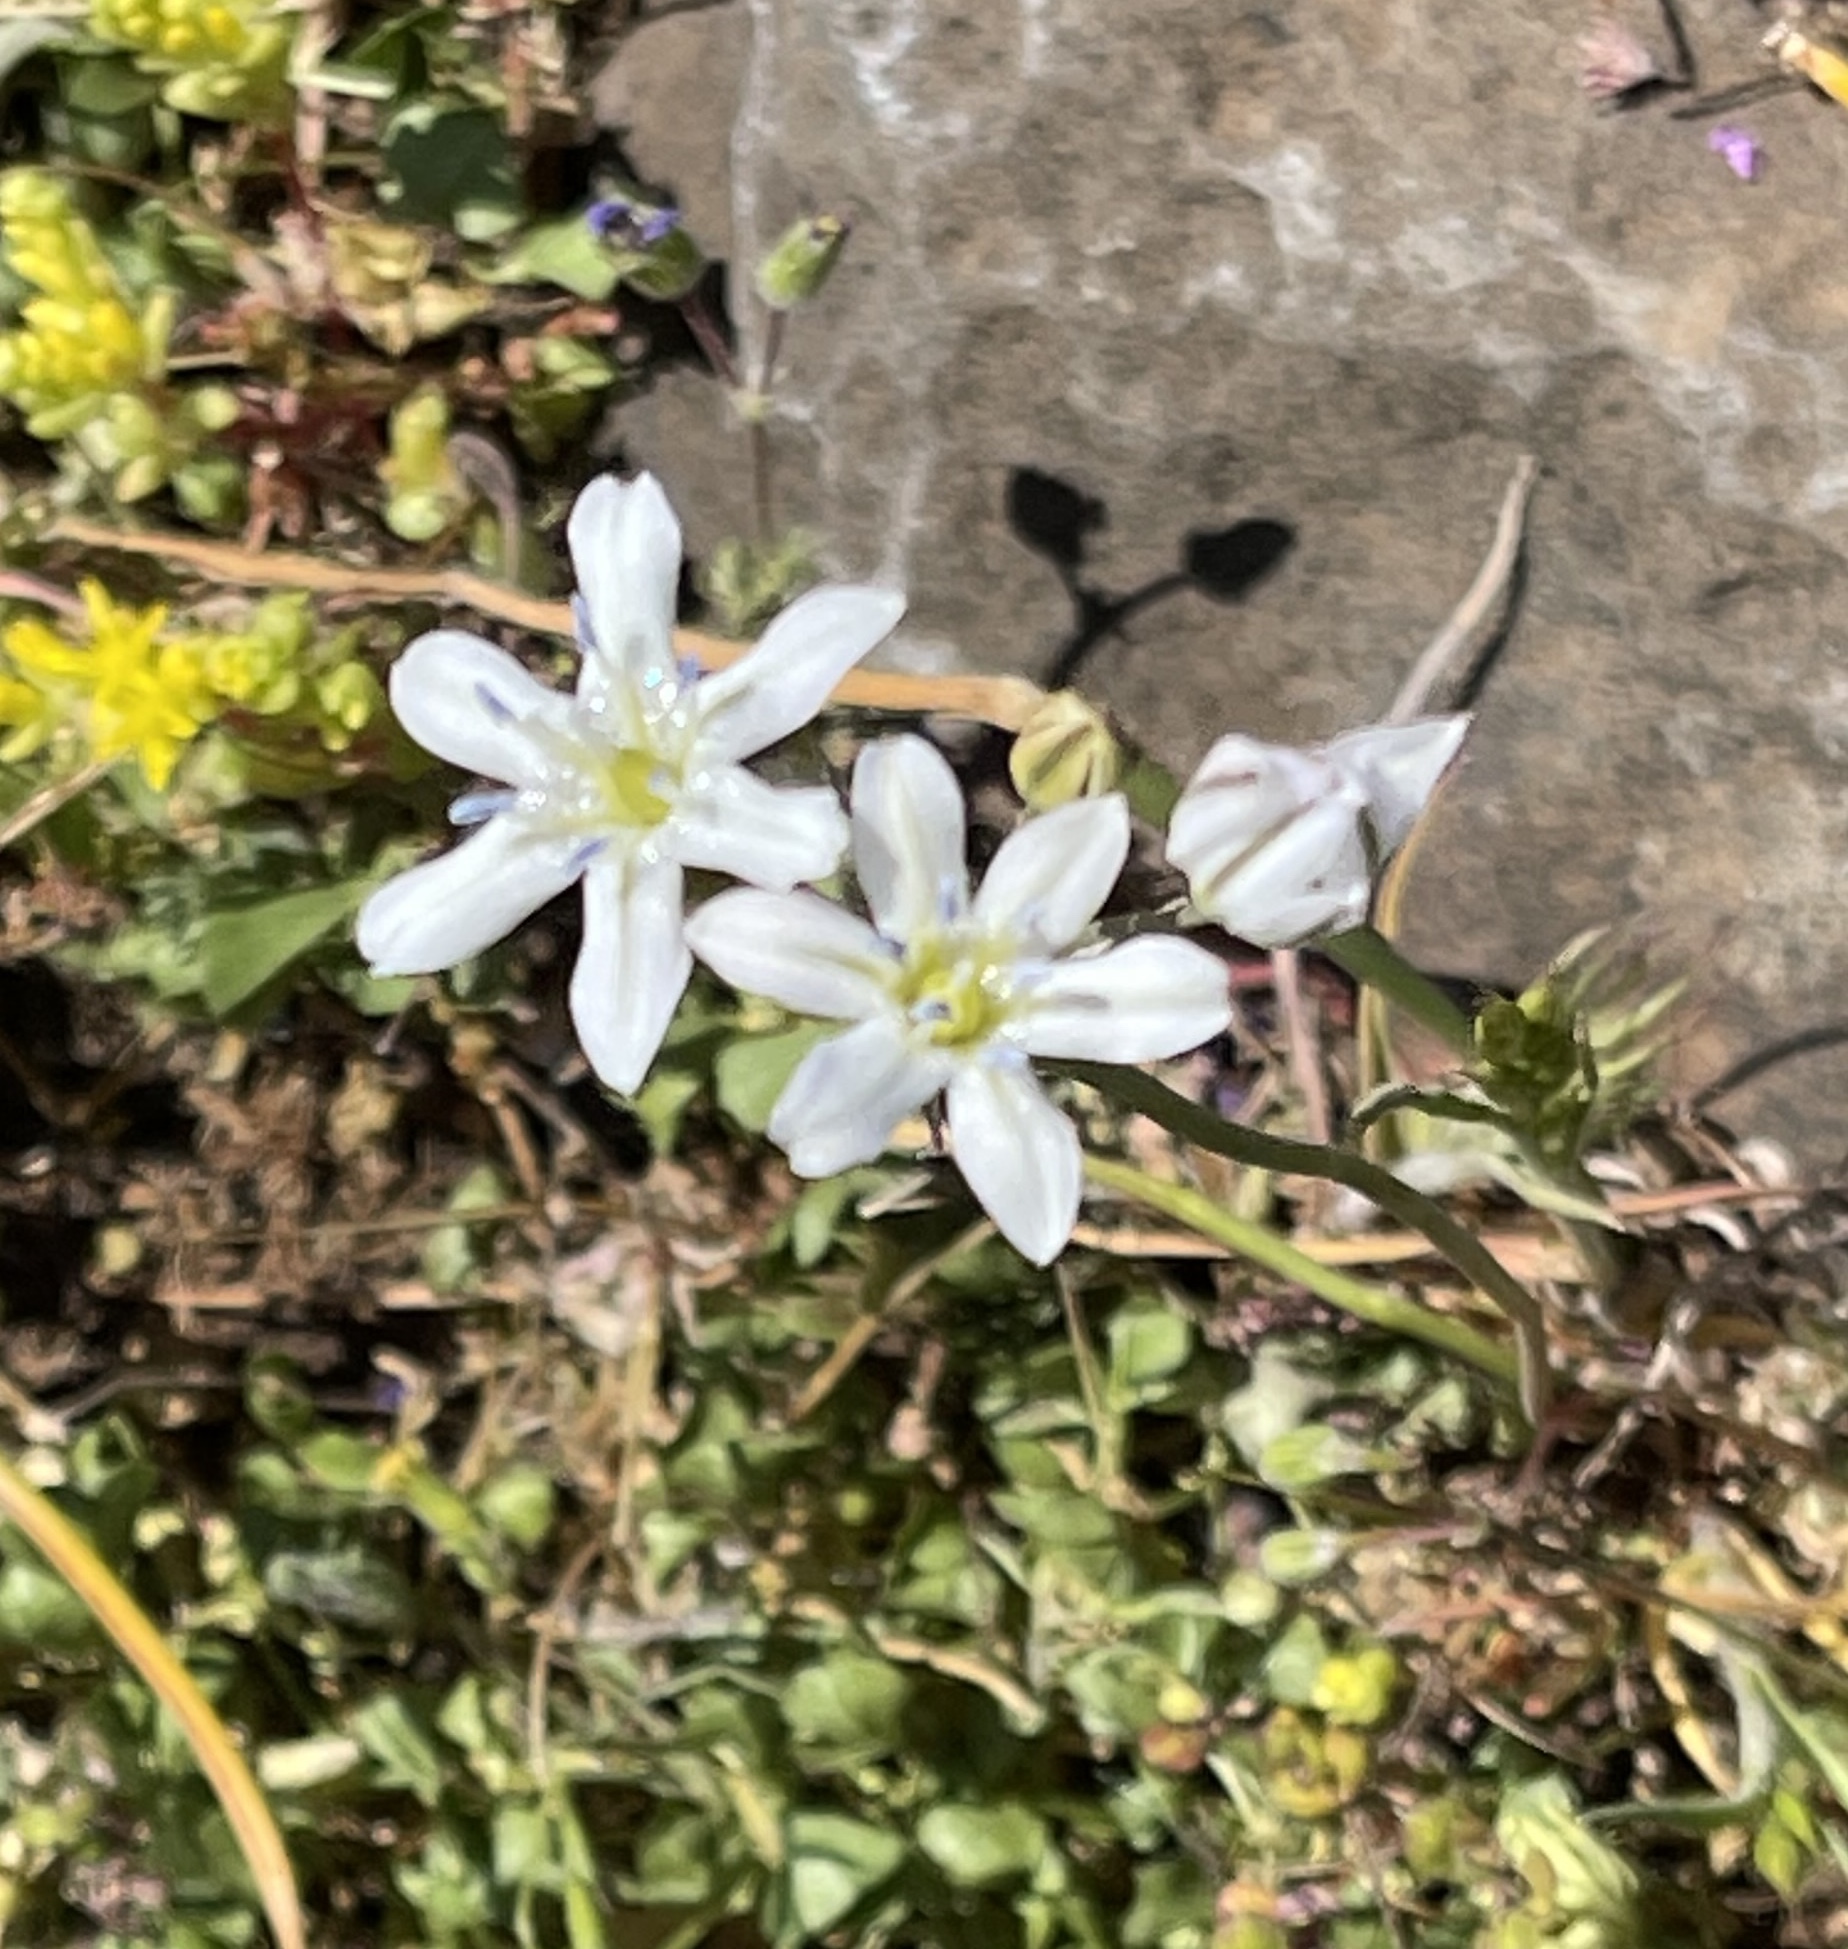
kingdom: Plantae
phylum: Tracheophyta
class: Liliopsida
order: Asparagales
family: Asparagaceae
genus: Triteleia
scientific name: Triteleia lilacina
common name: Lilac-flower wild hyacinth
